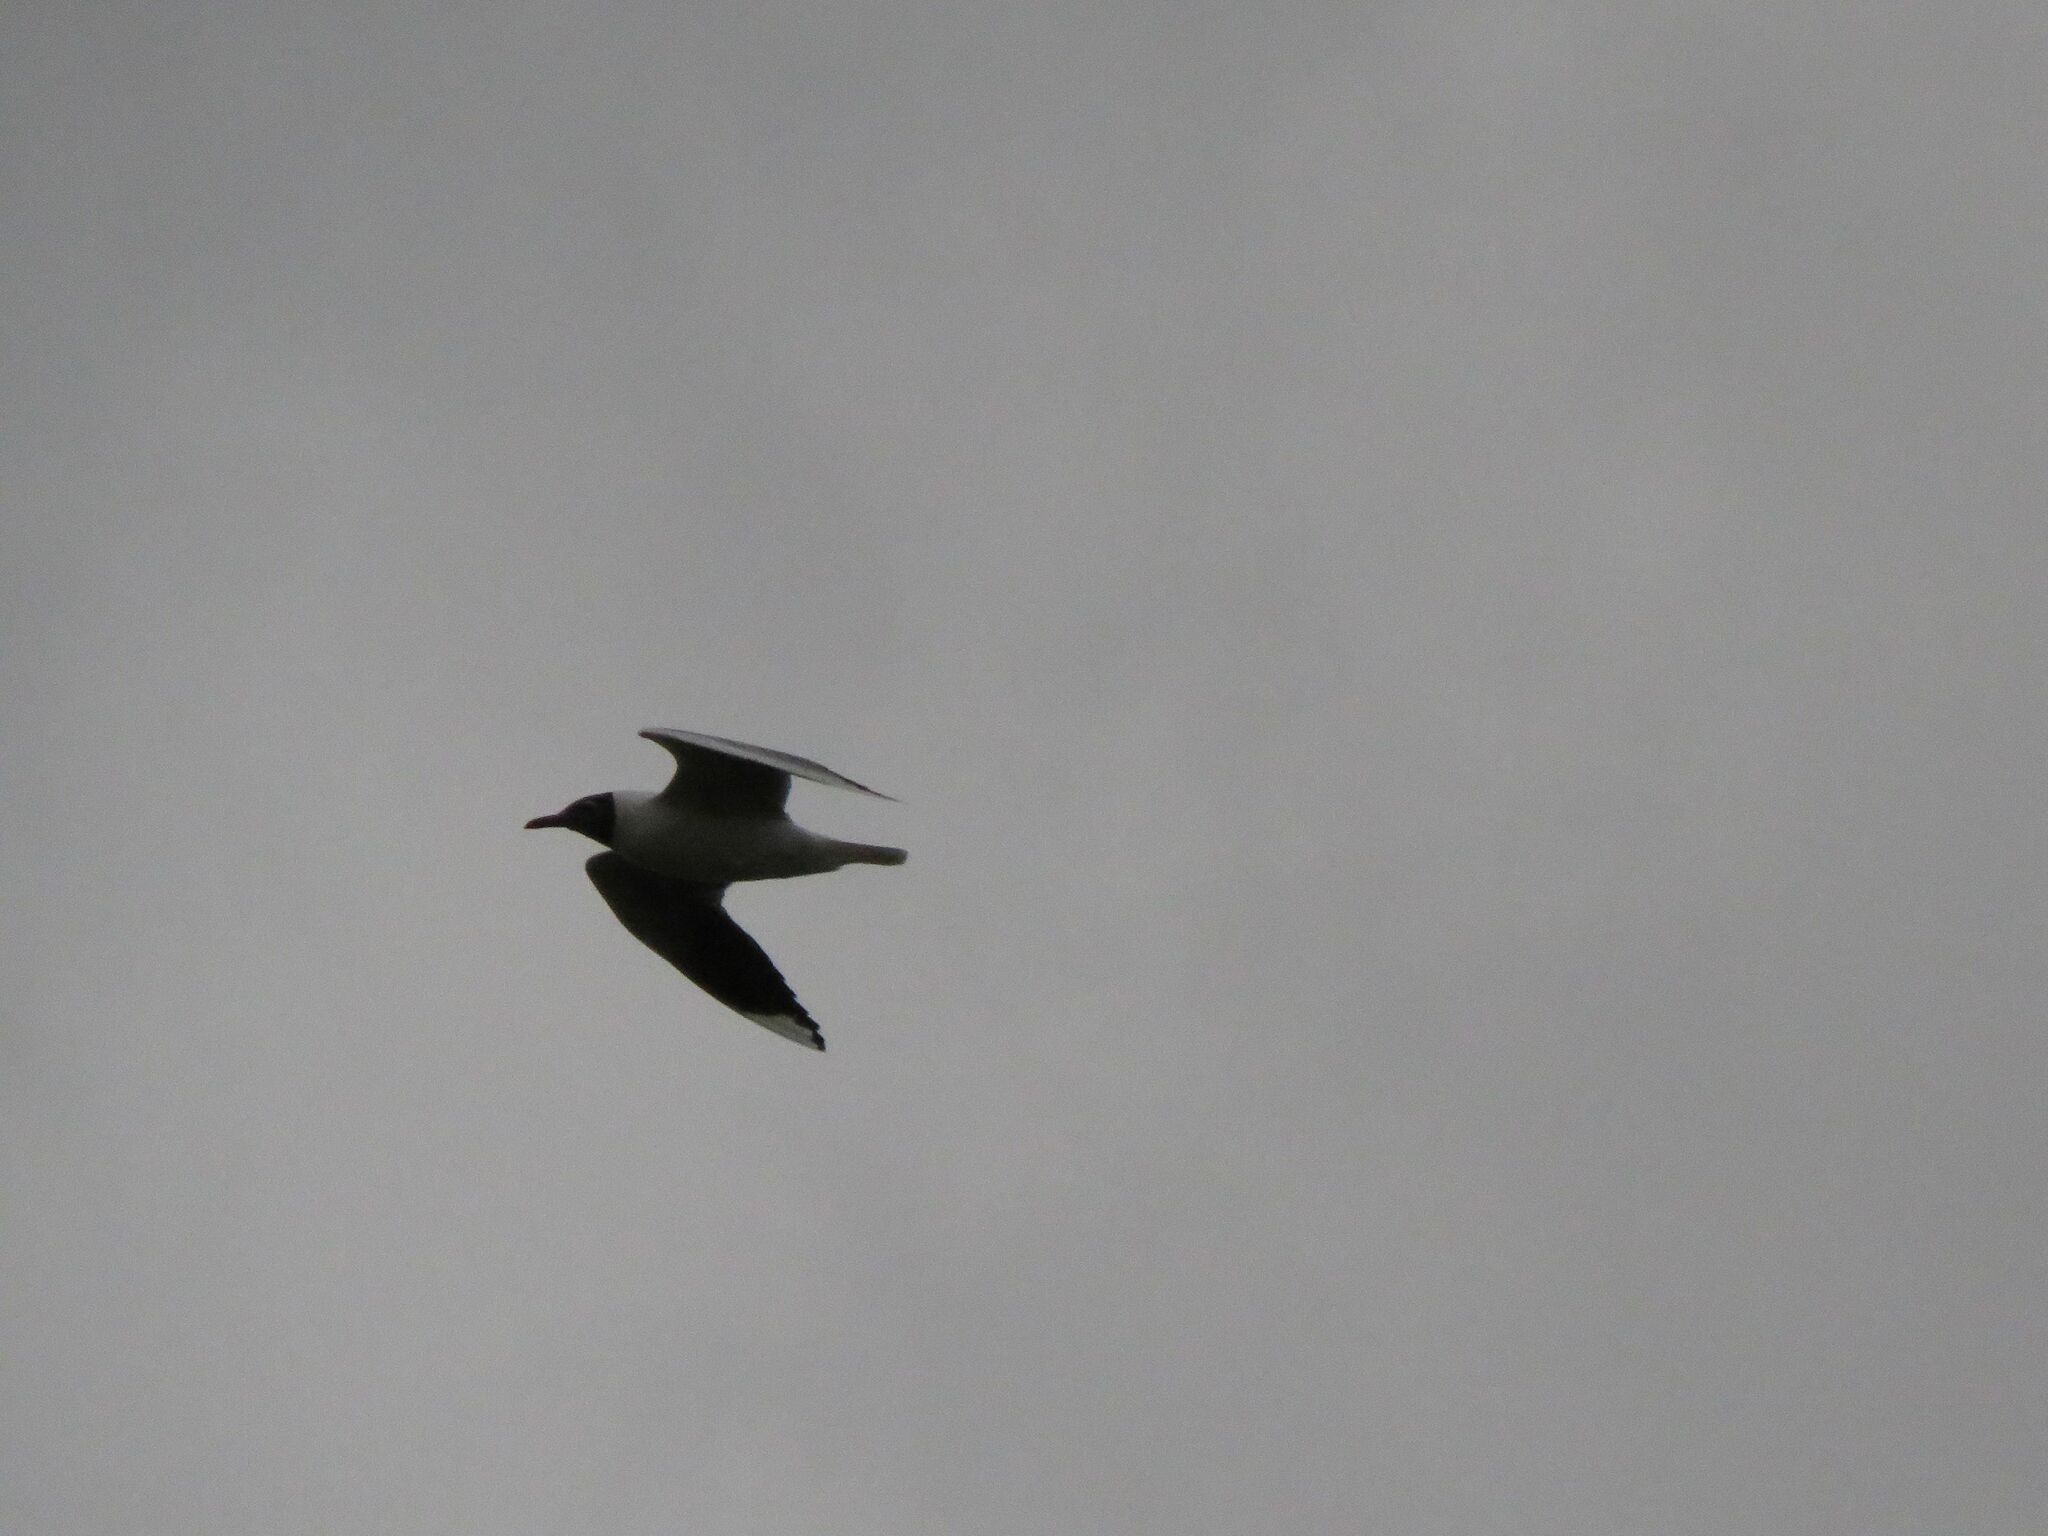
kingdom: Animalia
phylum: Chordata
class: Aves
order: Charadriiformes
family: Laridae
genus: Chroicocephalus
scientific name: Chroicocephalus maculipennis
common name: Brown-hooded gull
